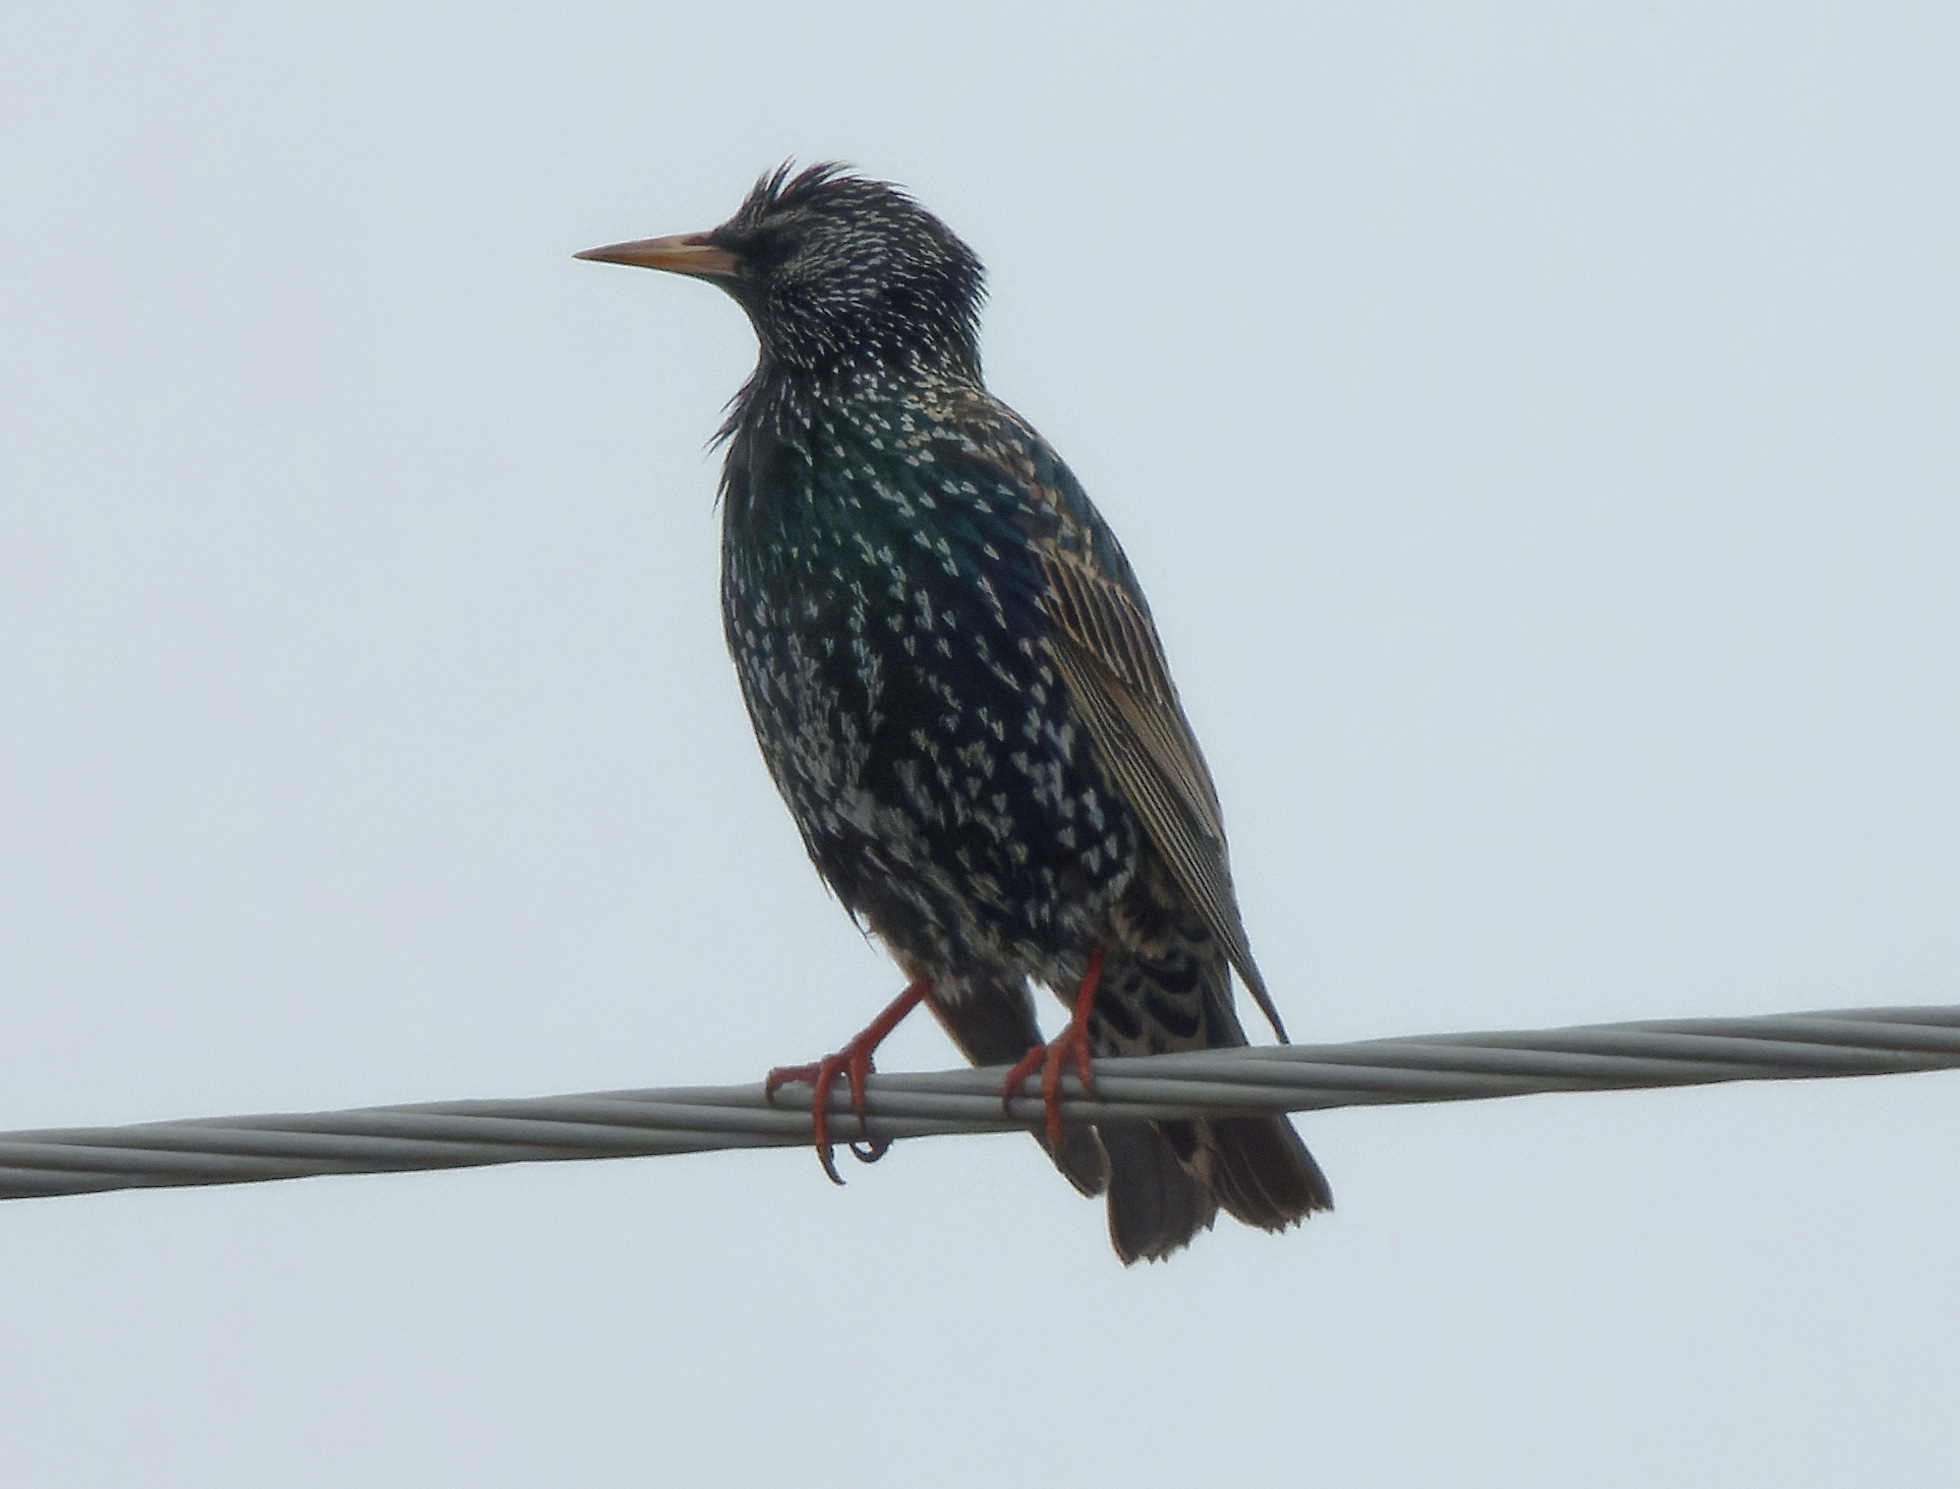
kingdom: Animalia
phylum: Chordata
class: Aves
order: Passeriformes
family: Sturnidae
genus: Sturnus
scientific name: Sturnus vulgaris
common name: Common starling
